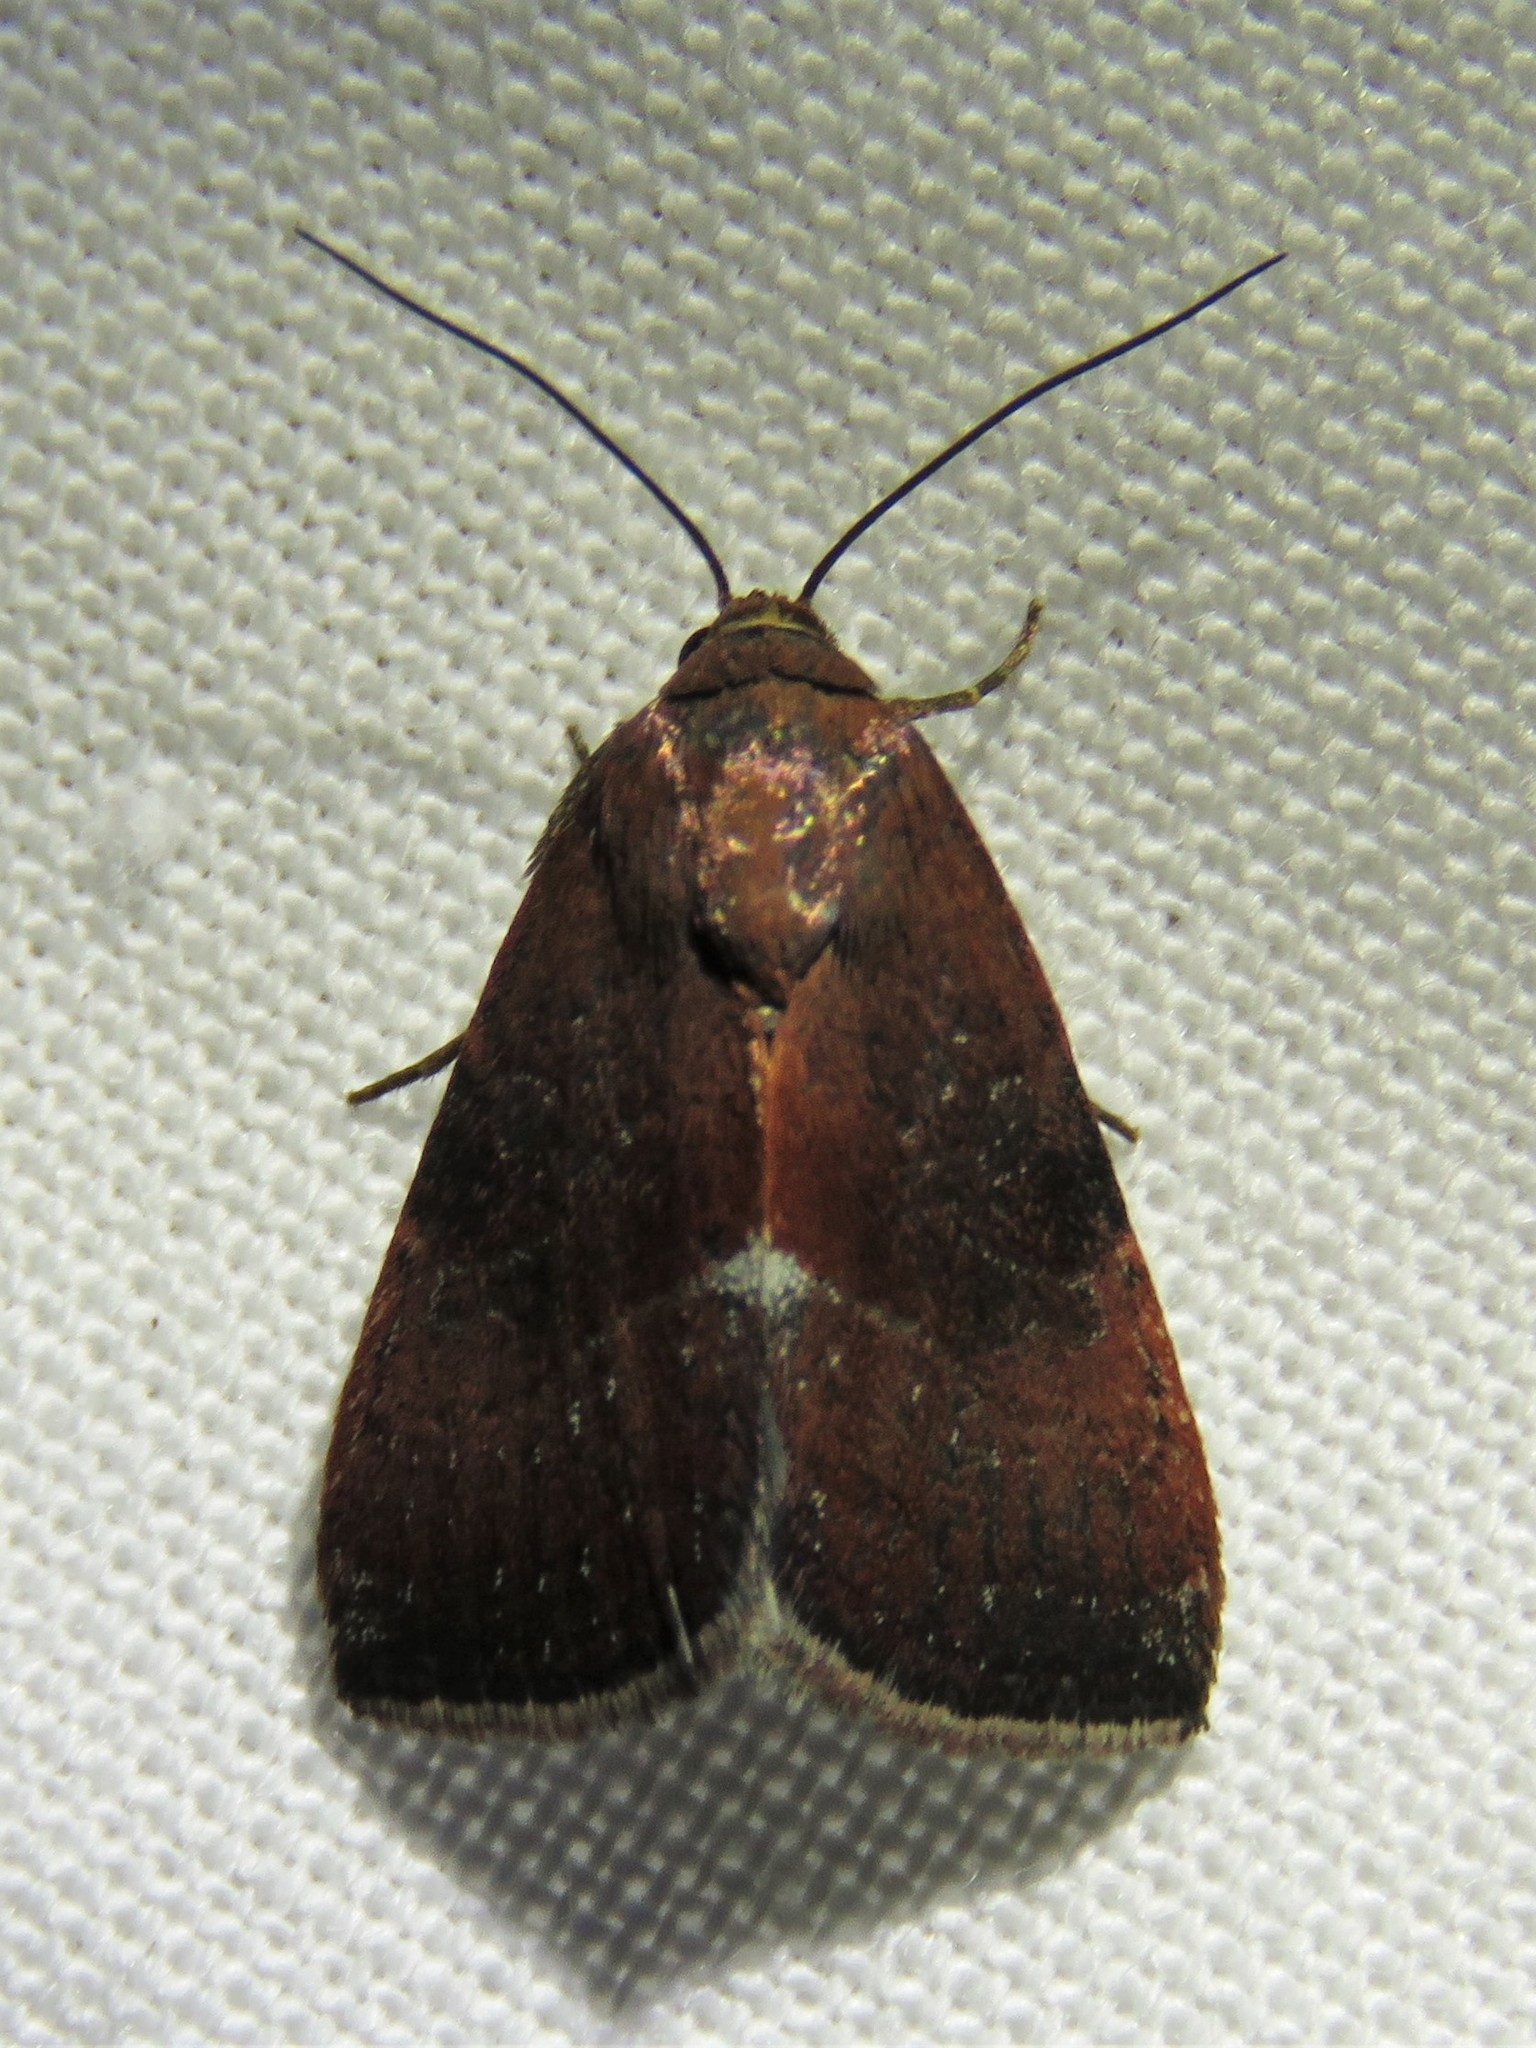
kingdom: Animalia
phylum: Arthropoda
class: Insecta
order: Lepidoptera
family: Noctuidae
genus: Galgula
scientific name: Galgula partita
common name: Wedgeling
